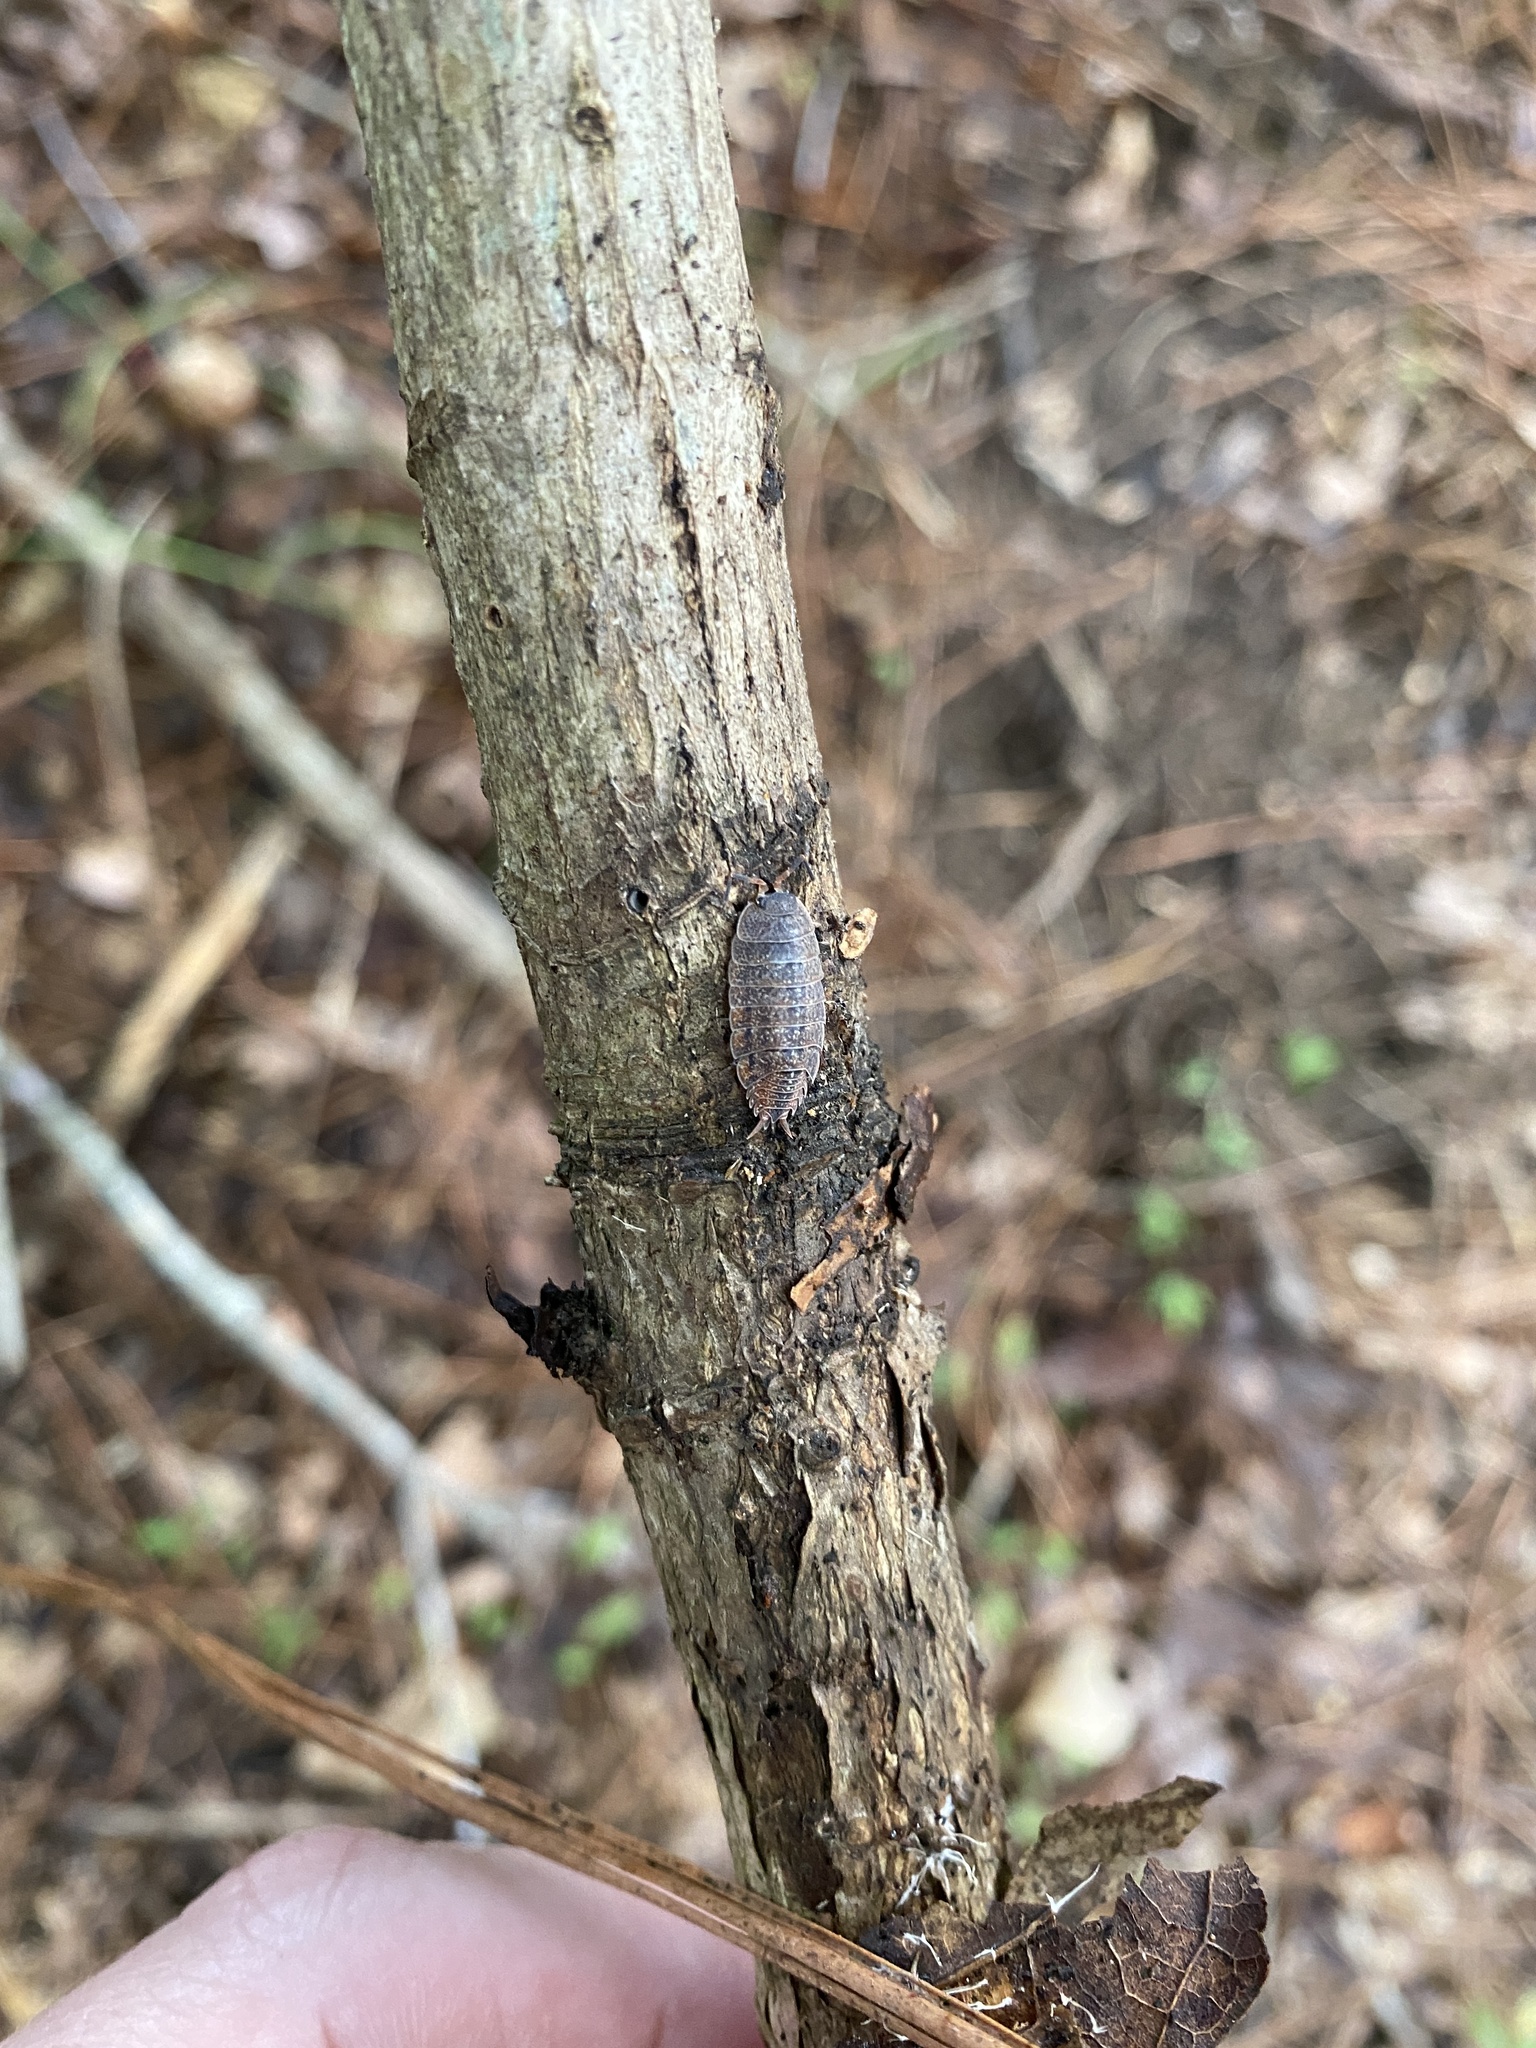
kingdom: Animalia
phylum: Arthropoda
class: Malacostraca
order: Isopoda
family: Porcellionidae
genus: Porcellionides
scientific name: Porcellionides virgatus
